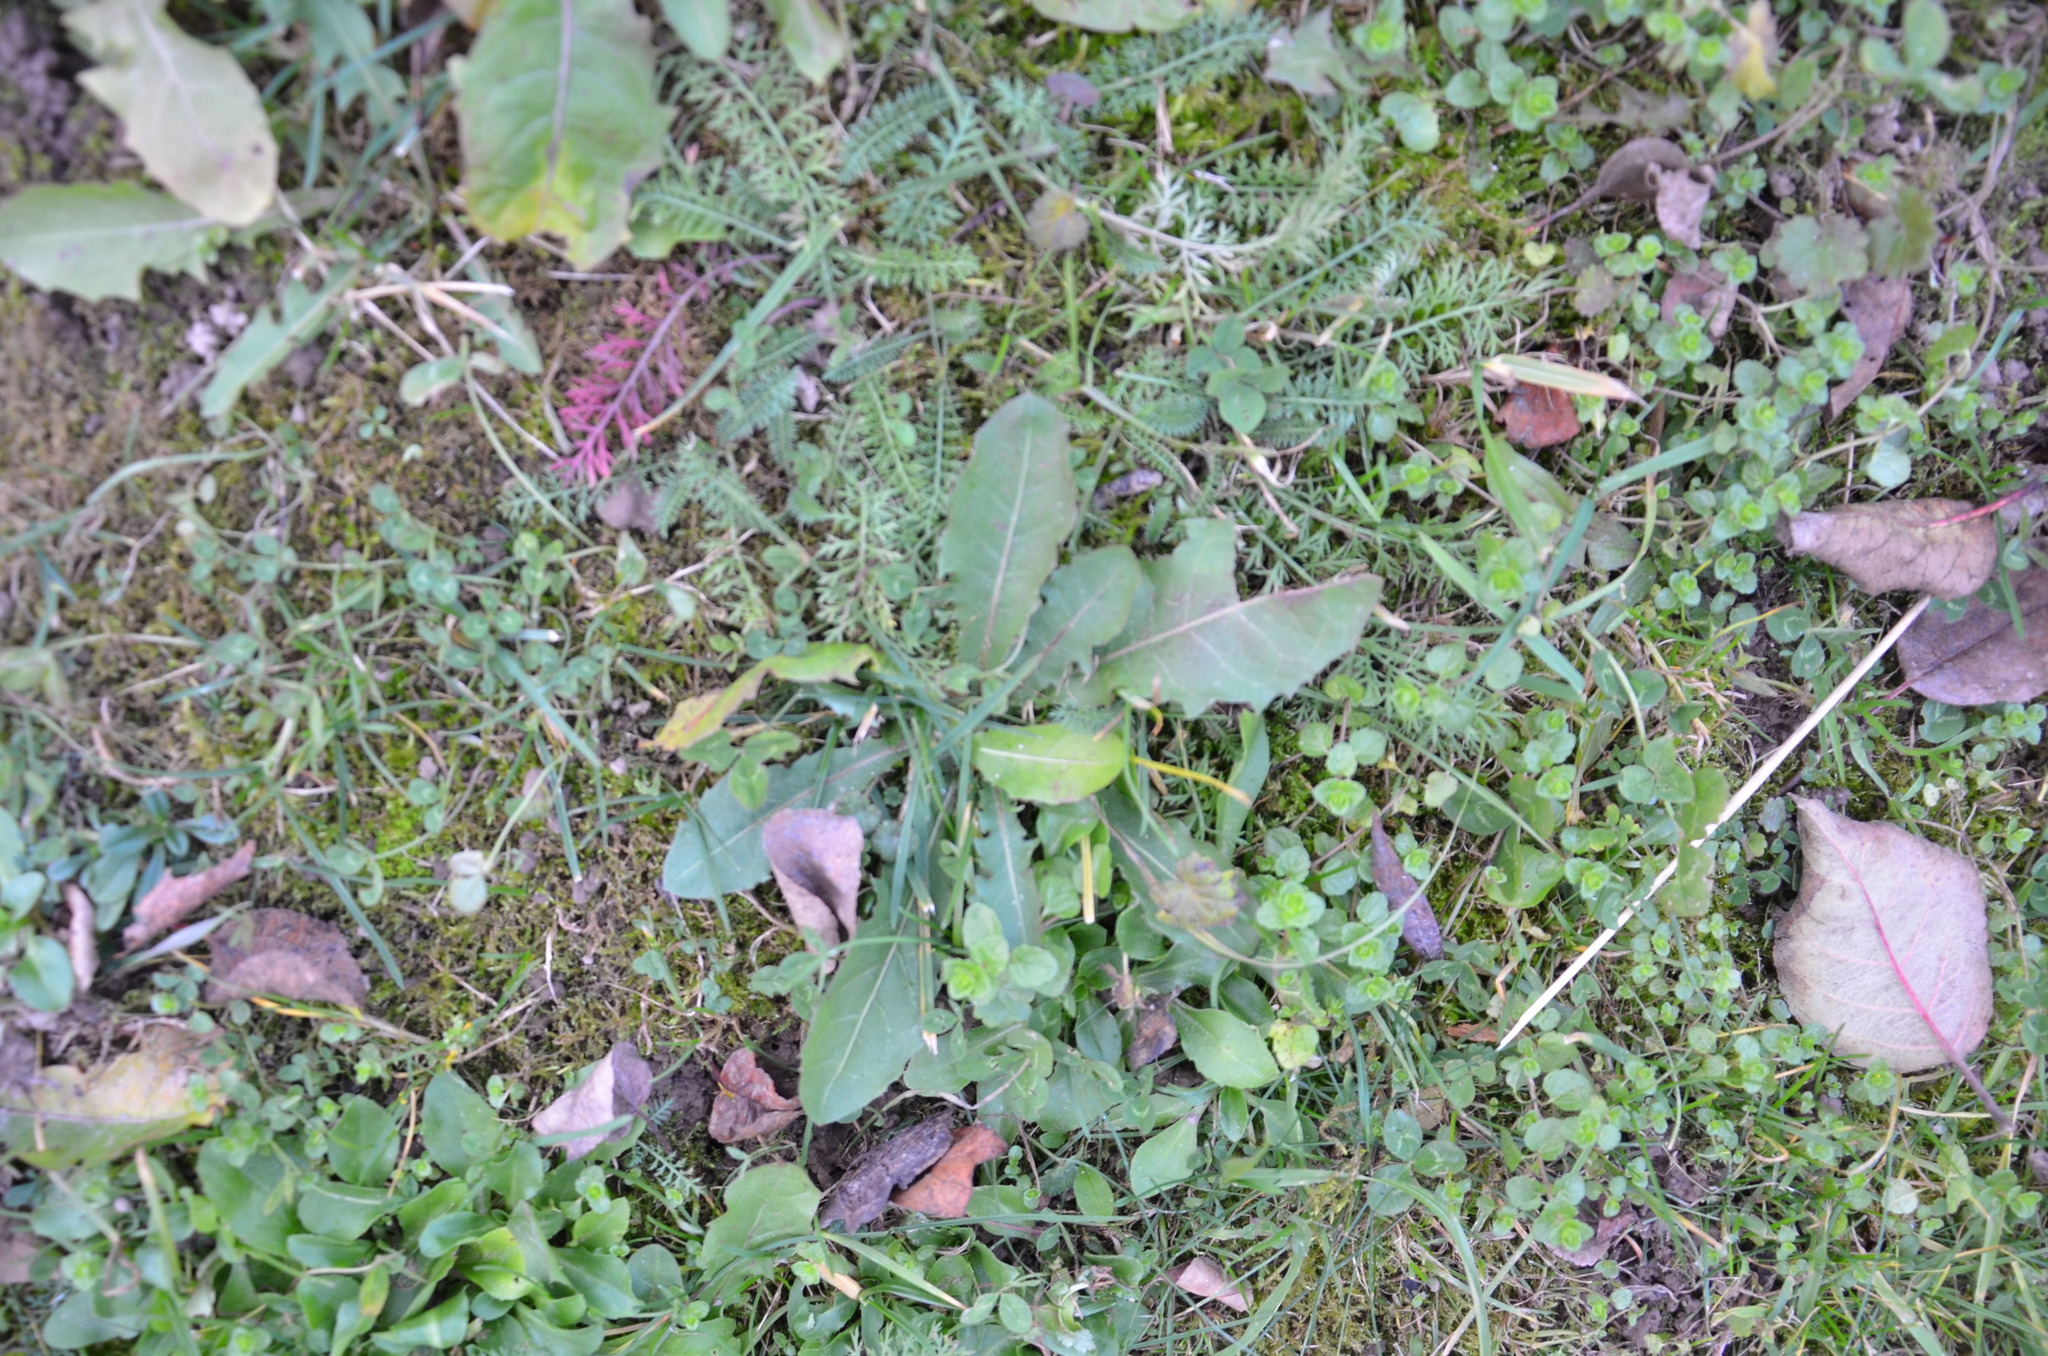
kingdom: Plantae
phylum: Tracheophyta
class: Magnoliopsida
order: Asterales
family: Asteraceae
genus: Taraxacum
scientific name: Taraxacum officinale
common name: Common dandelion
